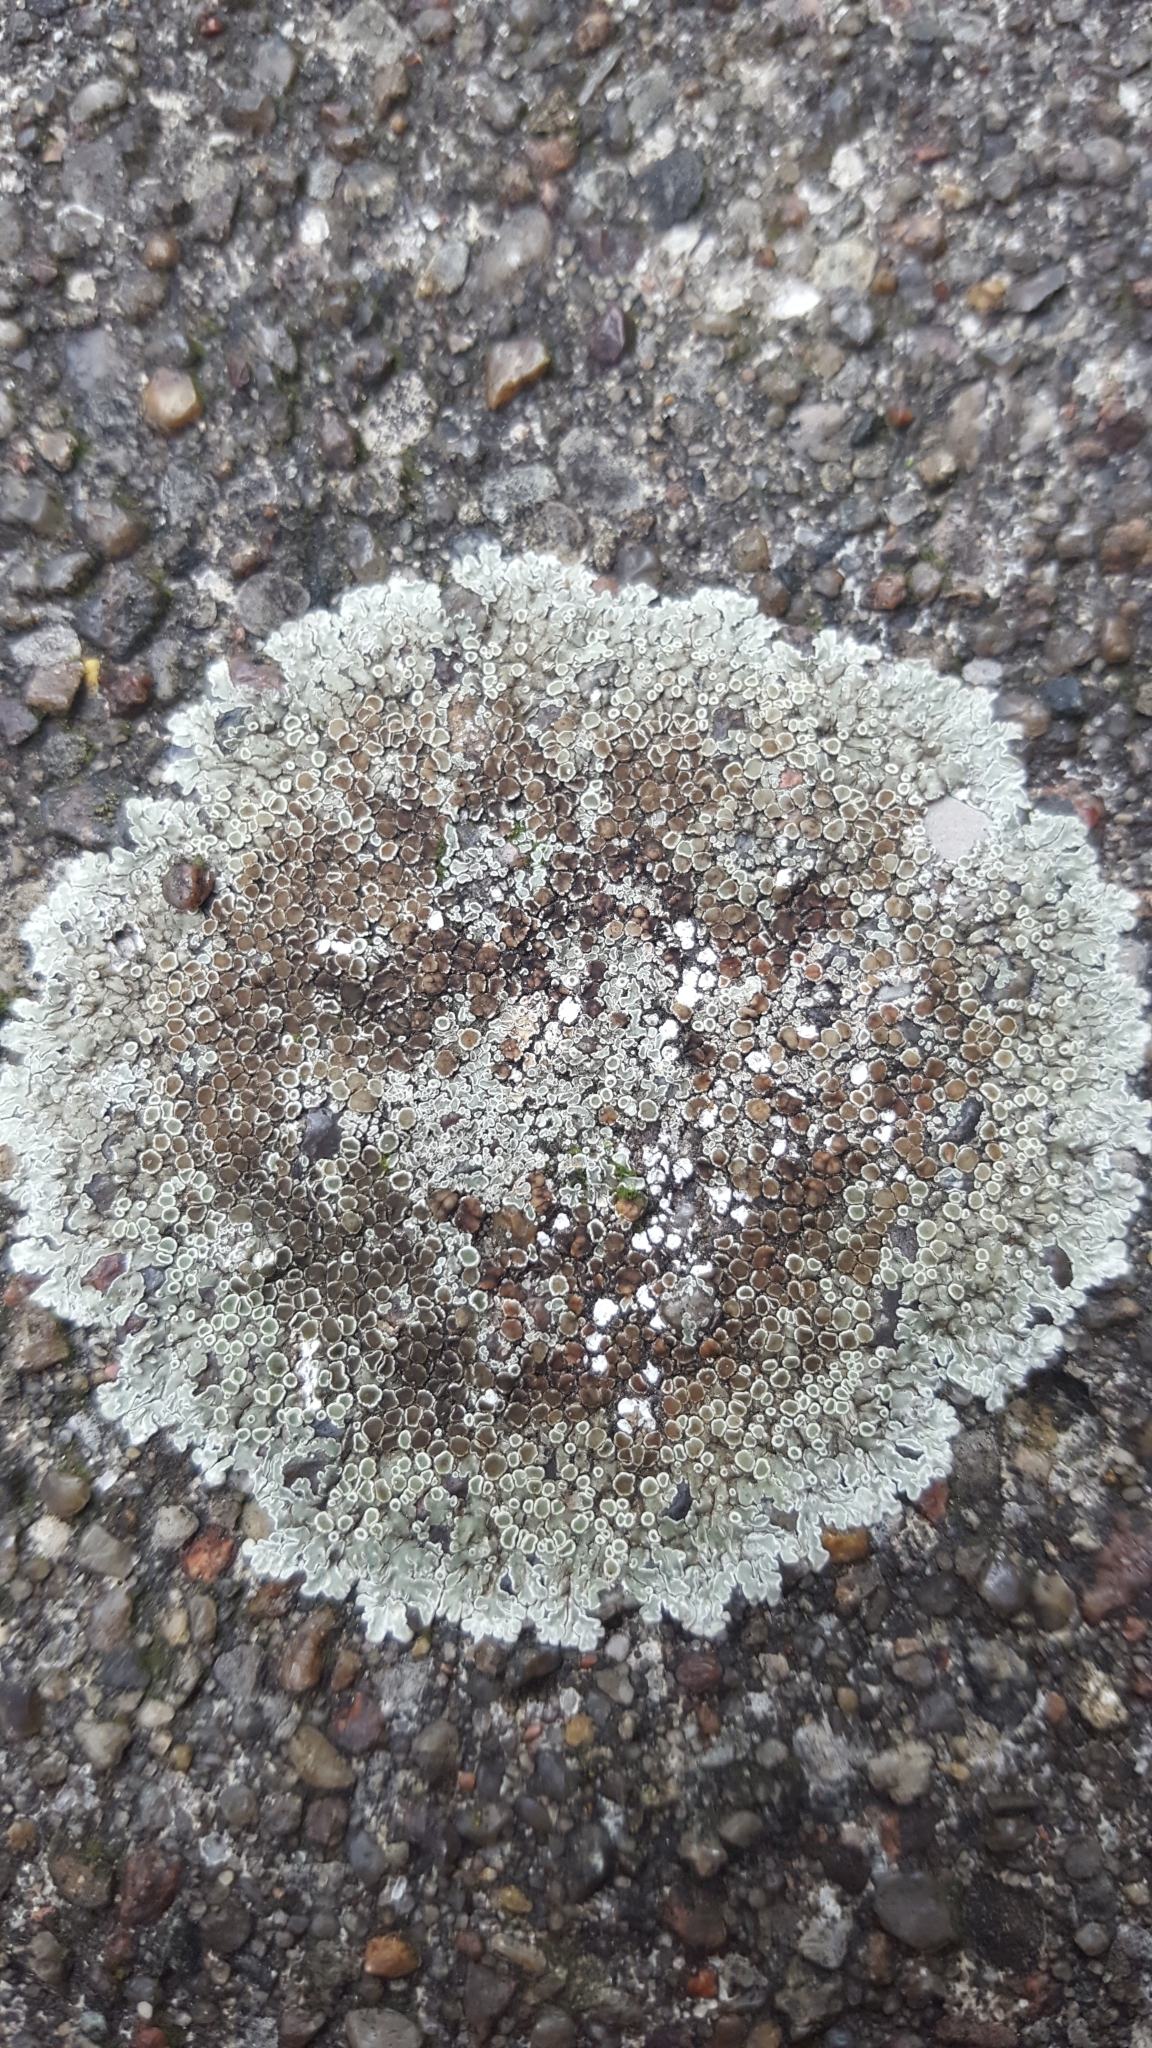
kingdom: Fungi
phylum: Ascomycota
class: Lecanoromycetes
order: Lecanorales
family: Lecanoraceae
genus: Protoparmeliopsis
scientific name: Protoparmeliopsis muralis
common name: Stonewall rim lichen
